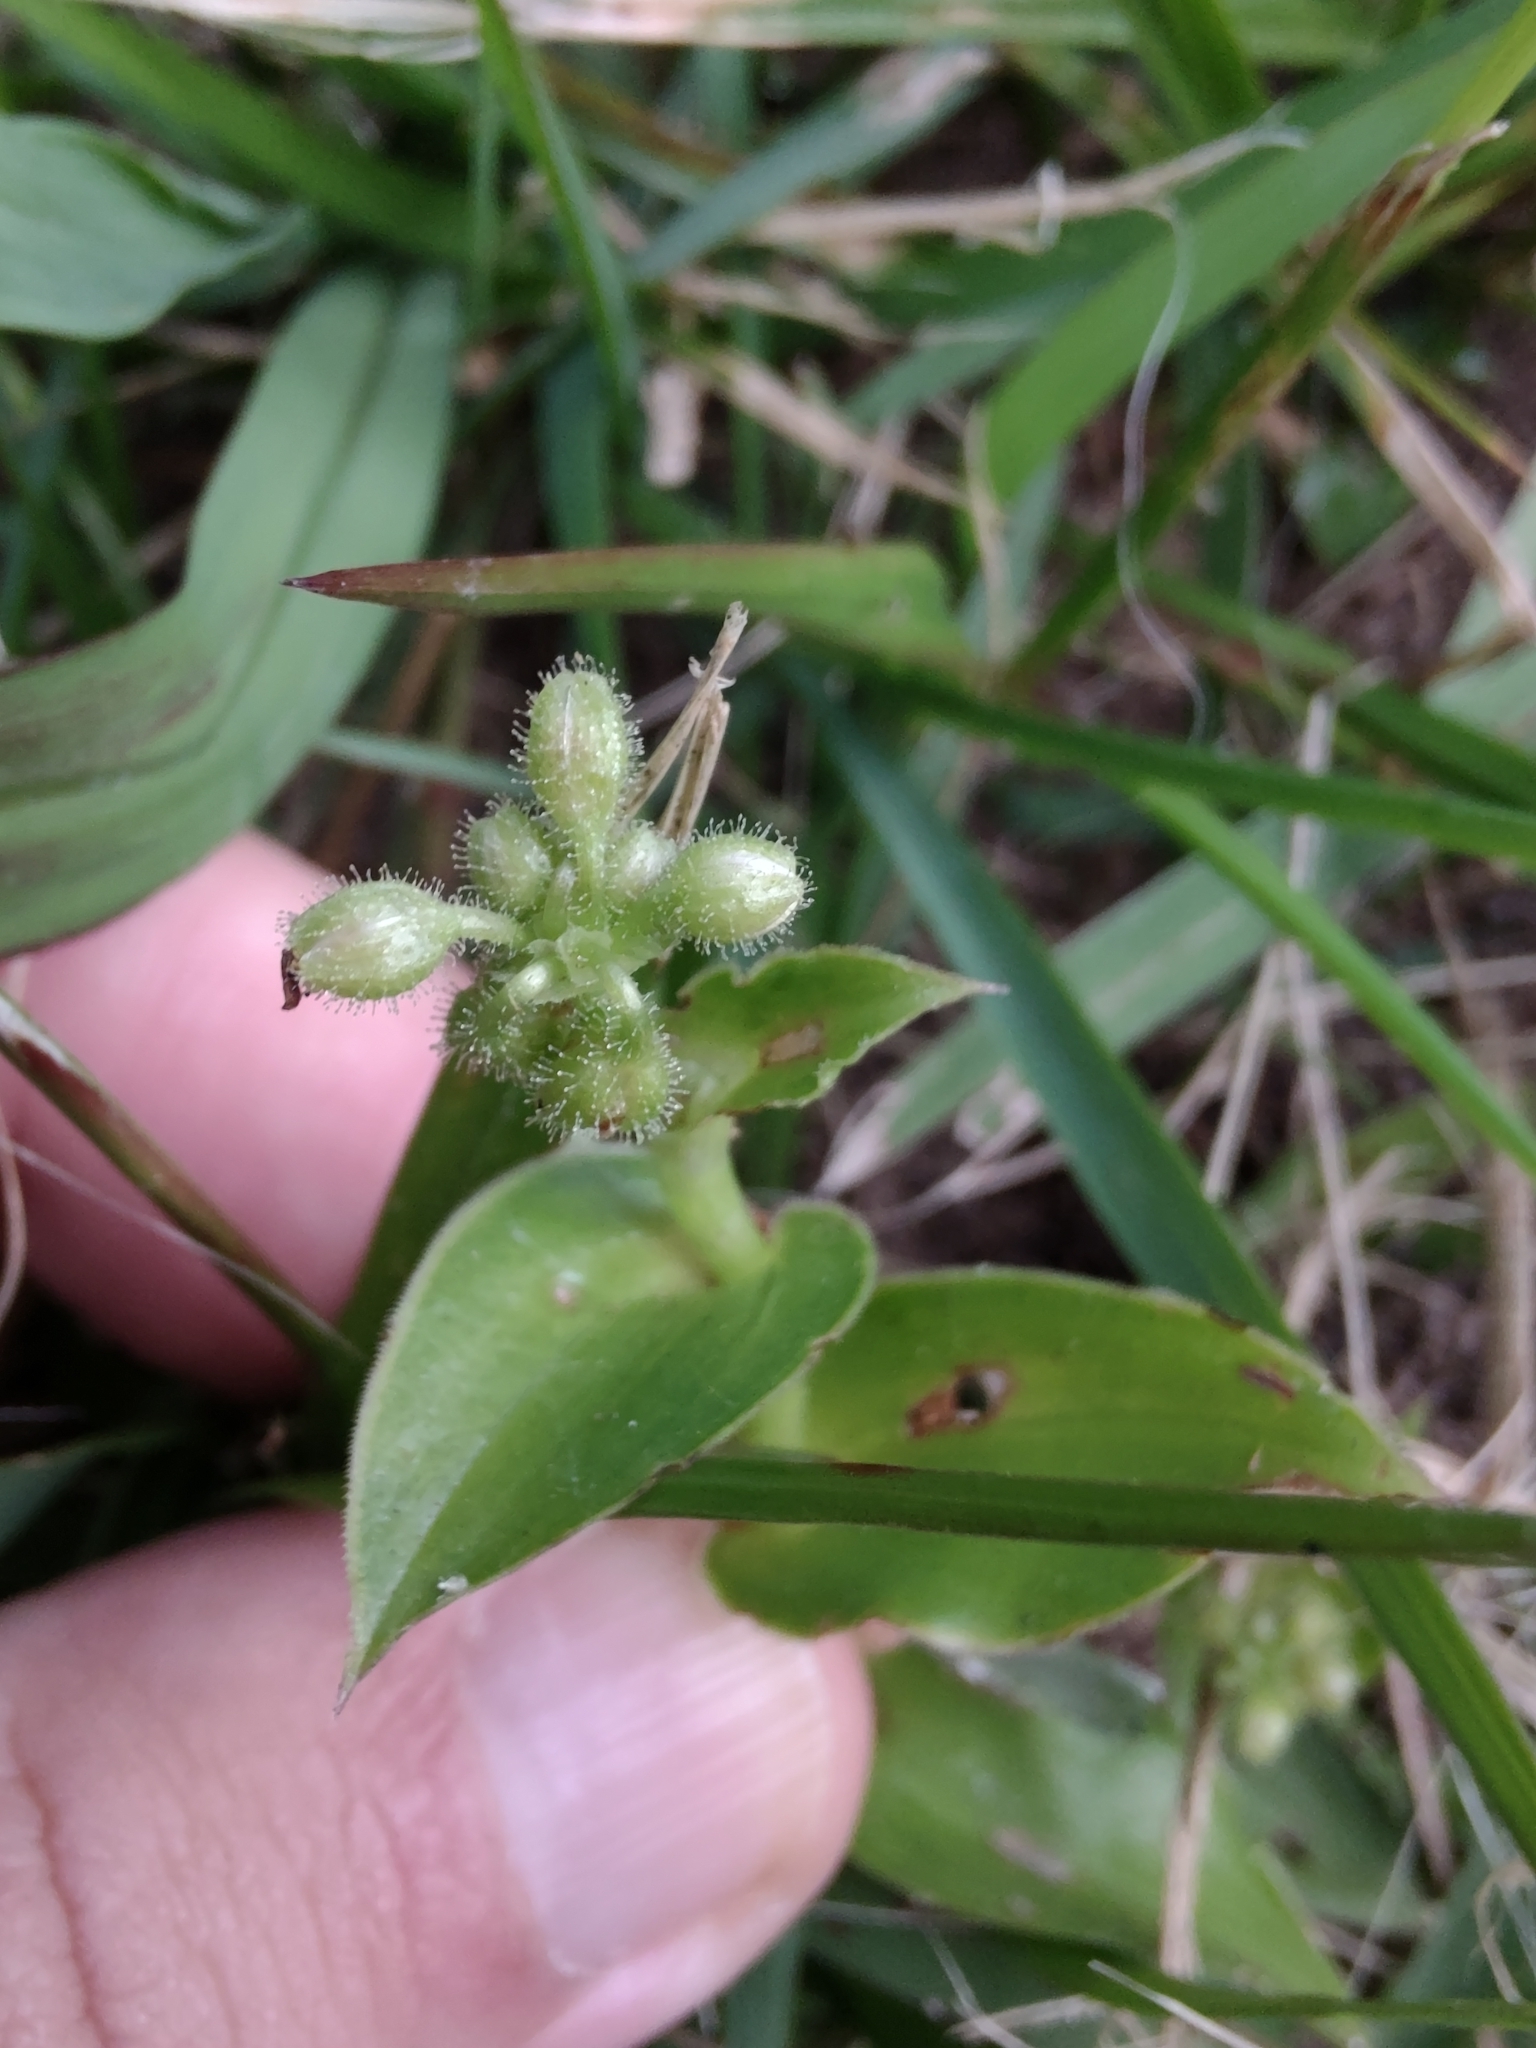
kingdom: Plantae
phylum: Tracheophyta
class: Liliopsida
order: Commelinales
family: Commelinaceae
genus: Callisia
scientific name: Callisia glandulosa
